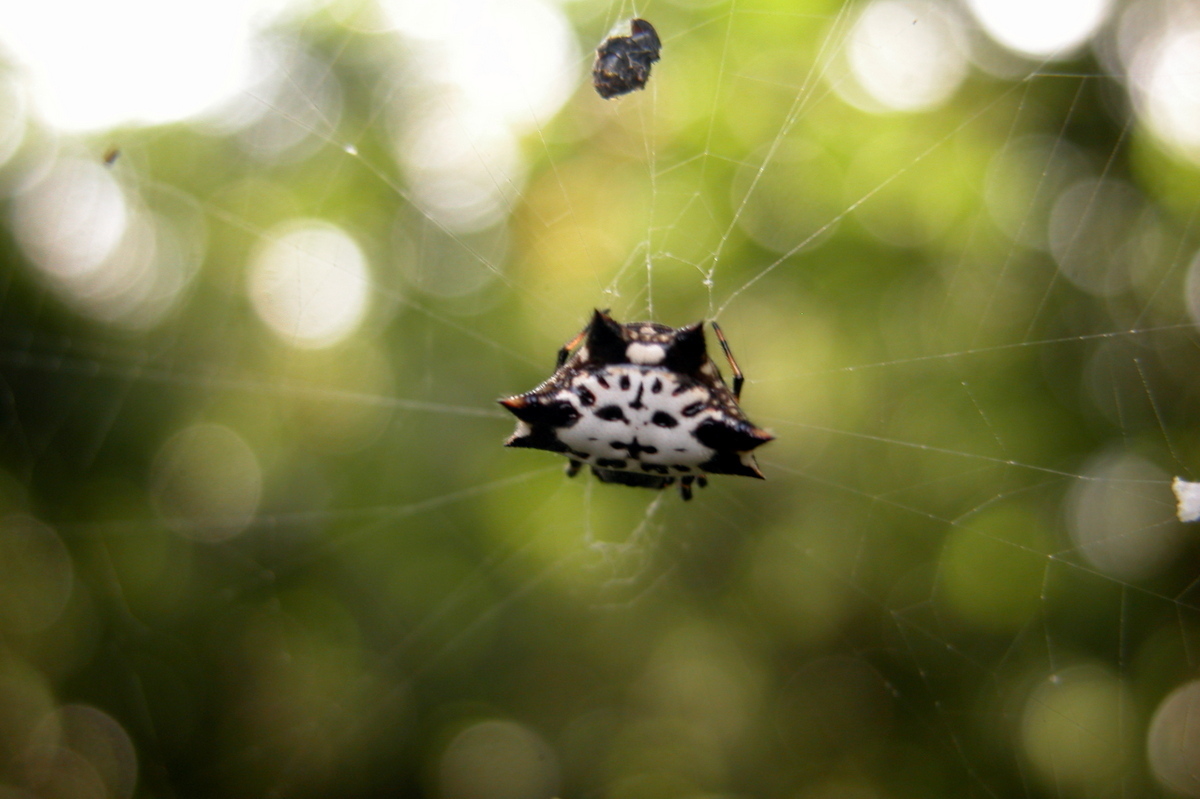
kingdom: Animalia
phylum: Arthropoda
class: Arachnida
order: Araneae
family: Araneidae
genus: Gasteracantha
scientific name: Gasteracantha kuhli
